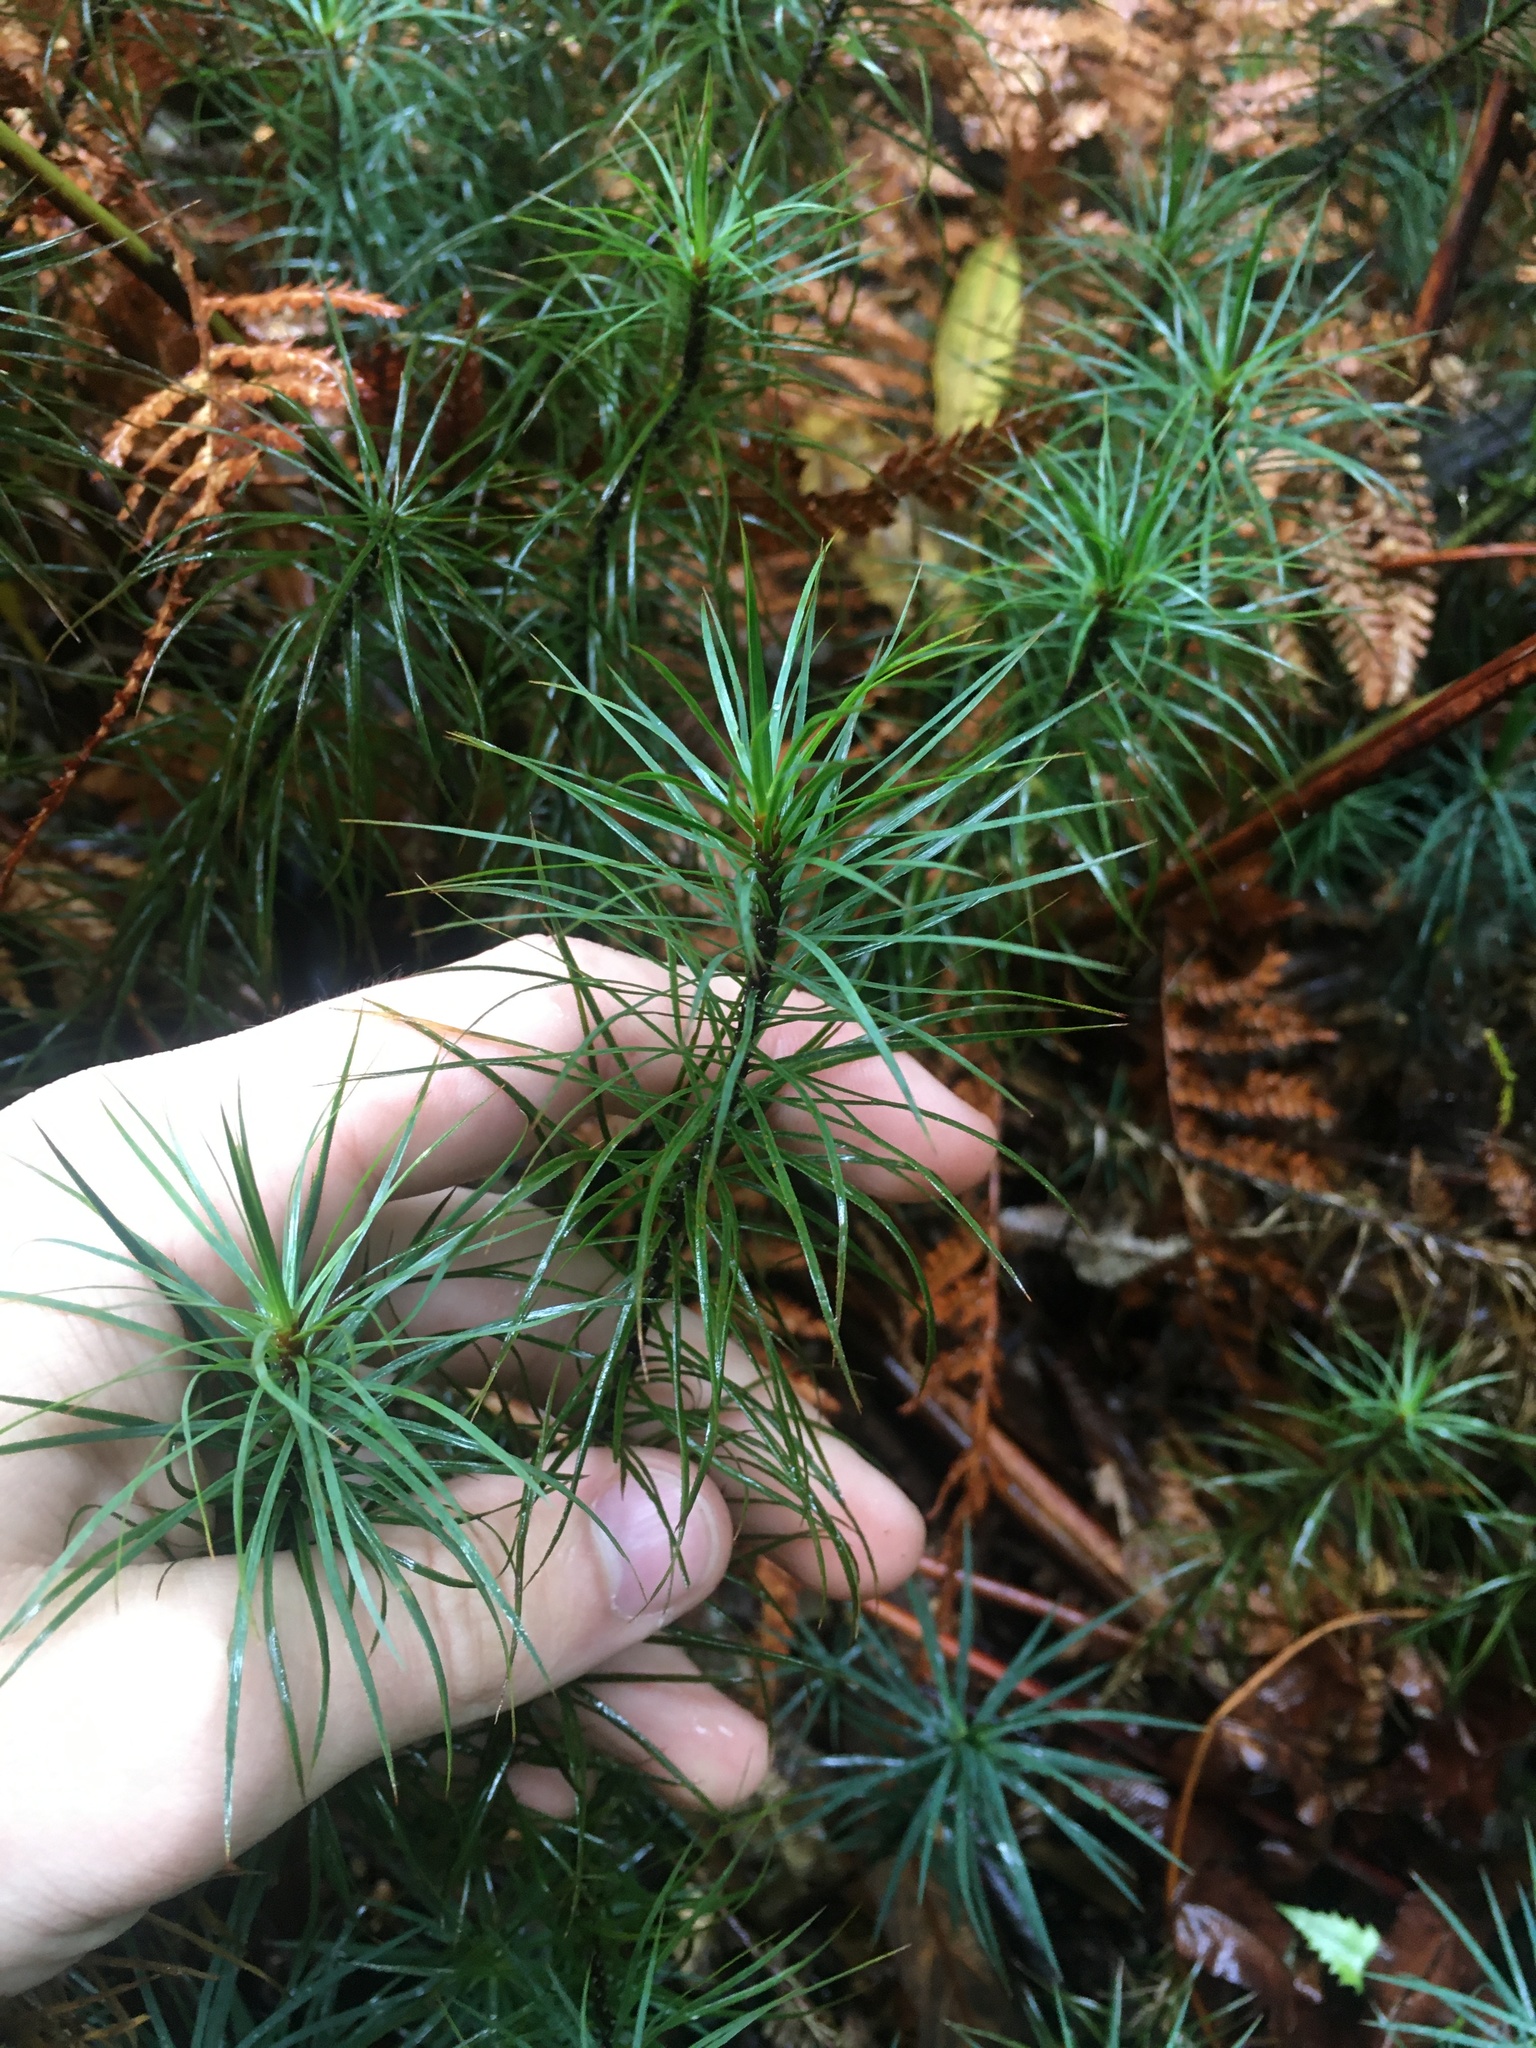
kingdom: Plantae
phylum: Bryophyta
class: Polytrichopsida
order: Polytrichales
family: Polytrichaceae
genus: Dawsonia
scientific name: Dawsonia superba
